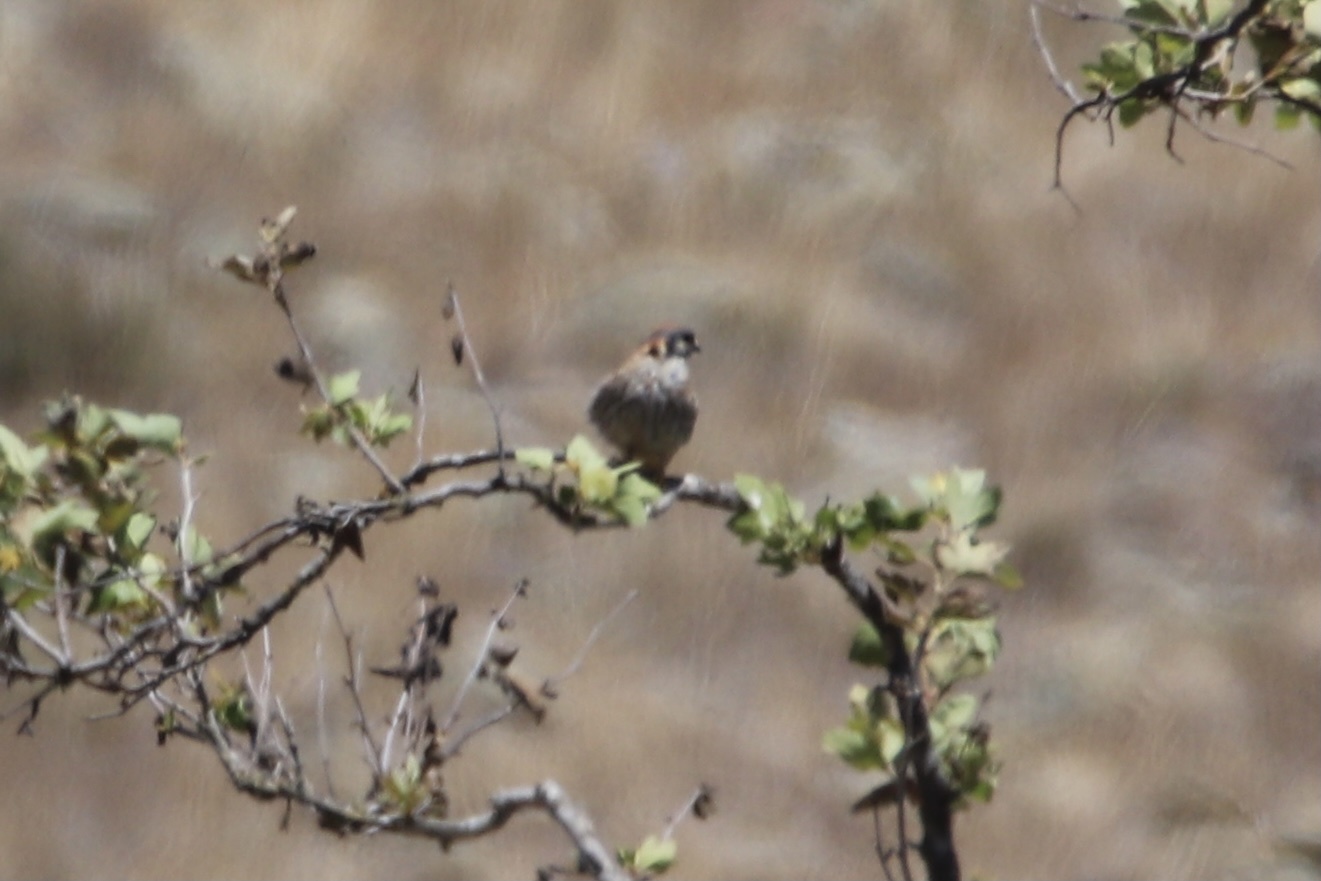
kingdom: Animalia
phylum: Chordata
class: Aves
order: Falconiformes
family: Falconidae
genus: Falco
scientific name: Falco sparverius
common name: American kestrel
